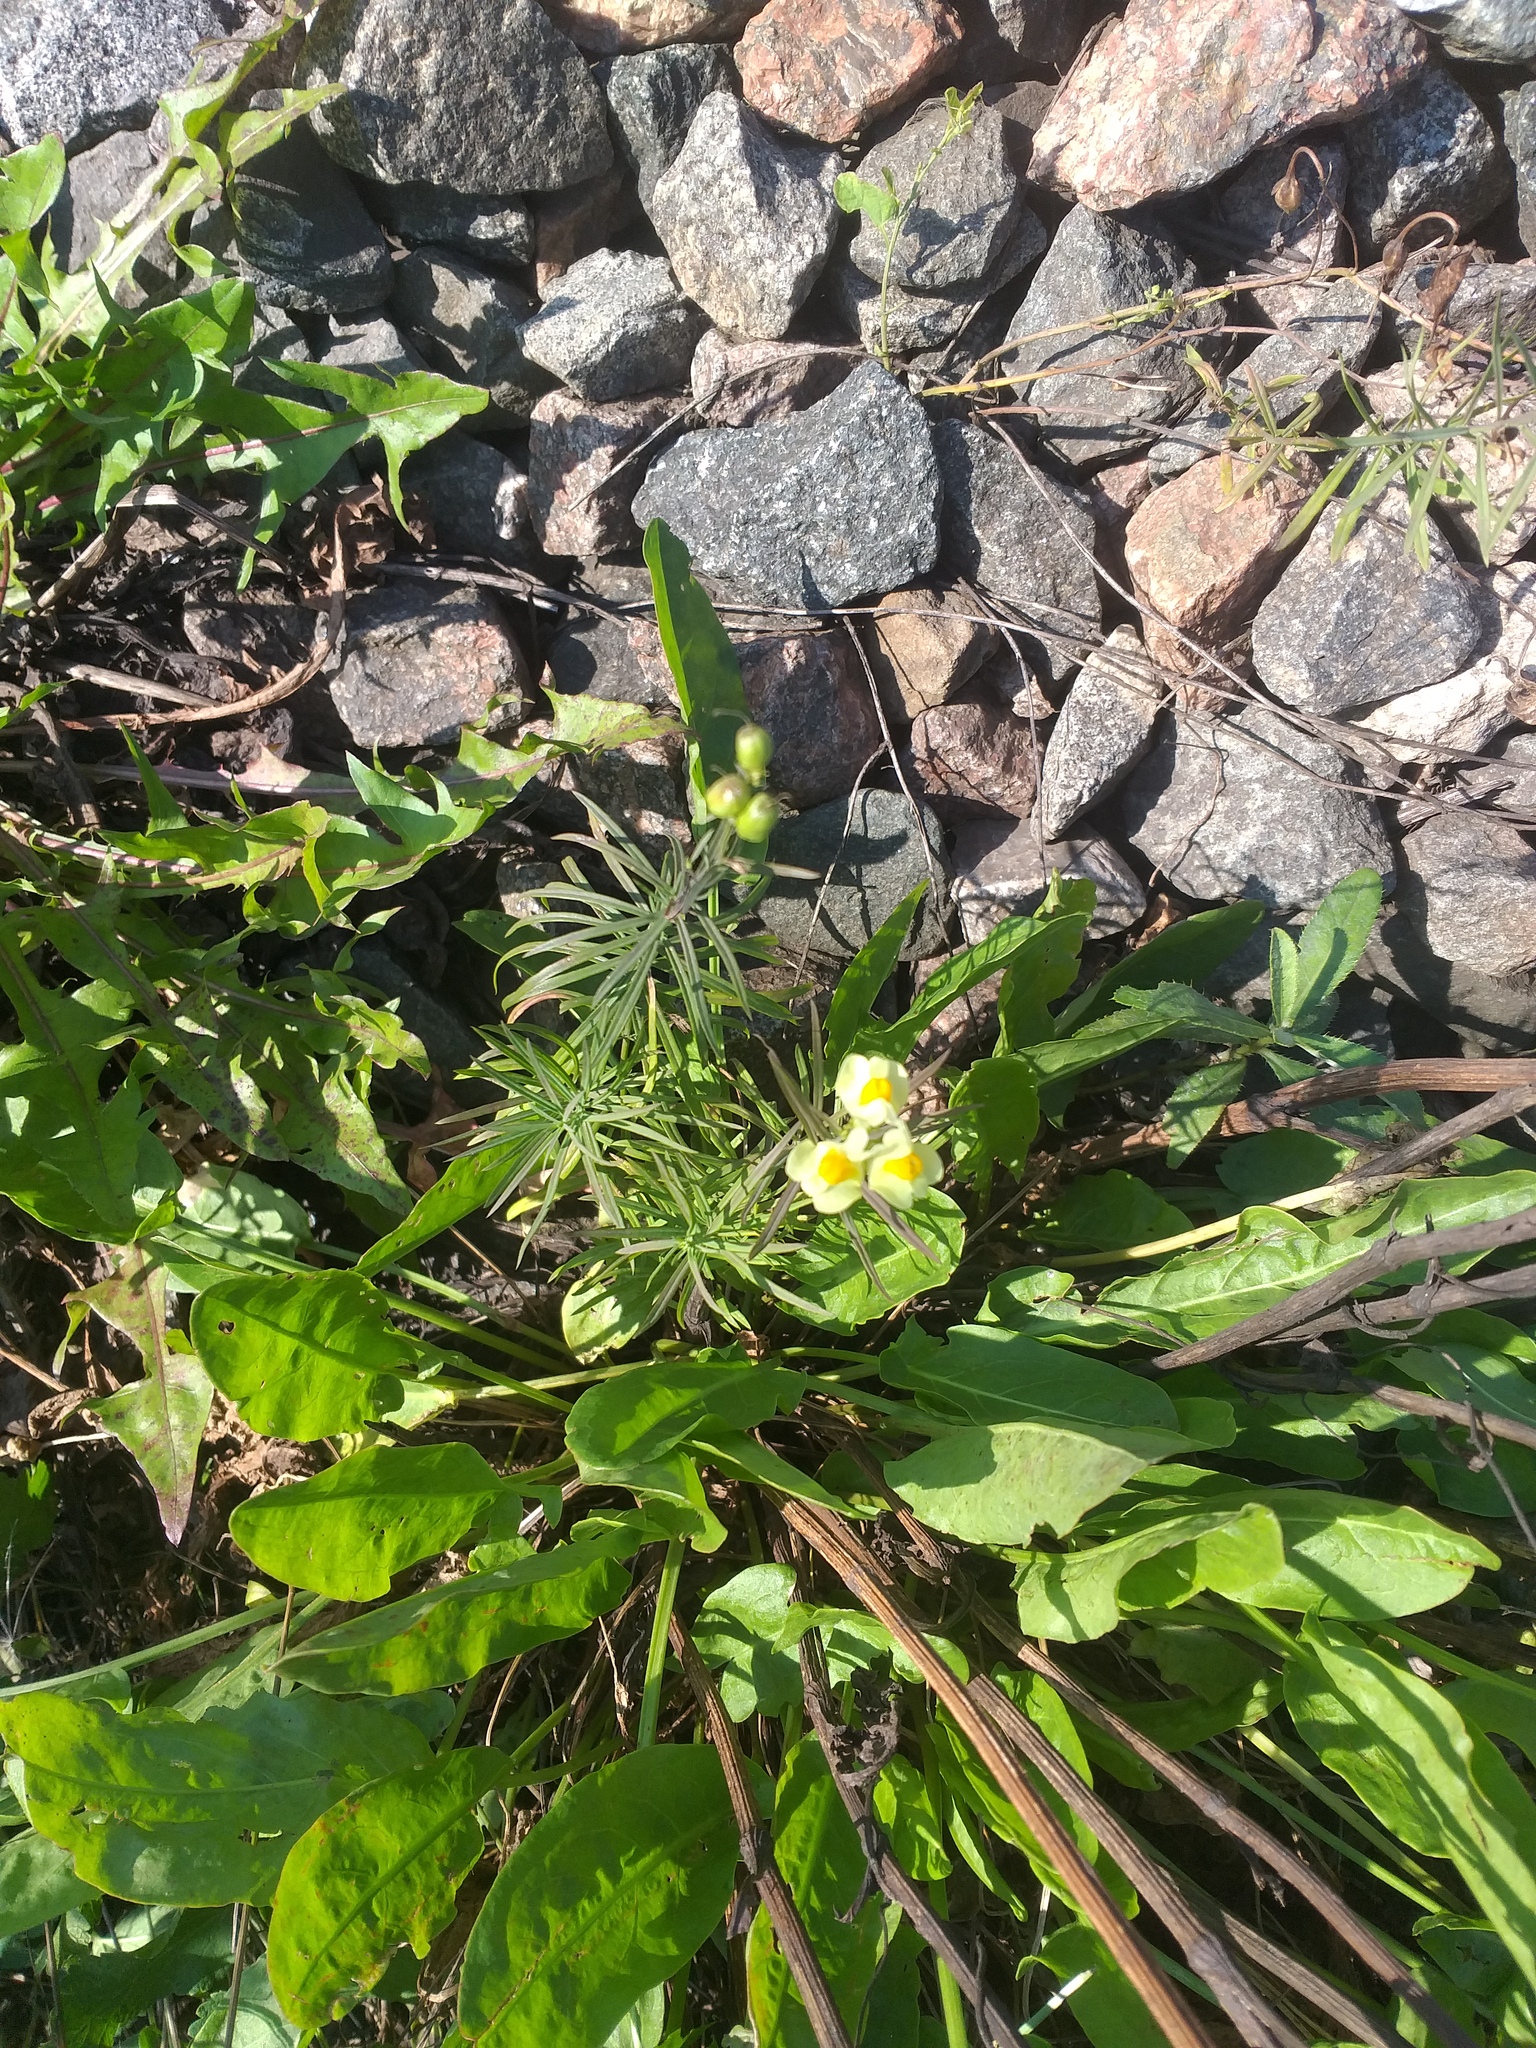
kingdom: Plantae
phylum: Tracheophyta
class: Magnoliopsida
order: Lamiales
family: Plantaginaceae
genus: Linaria
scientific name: Linaria vulgaris
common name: Butter and eggs
